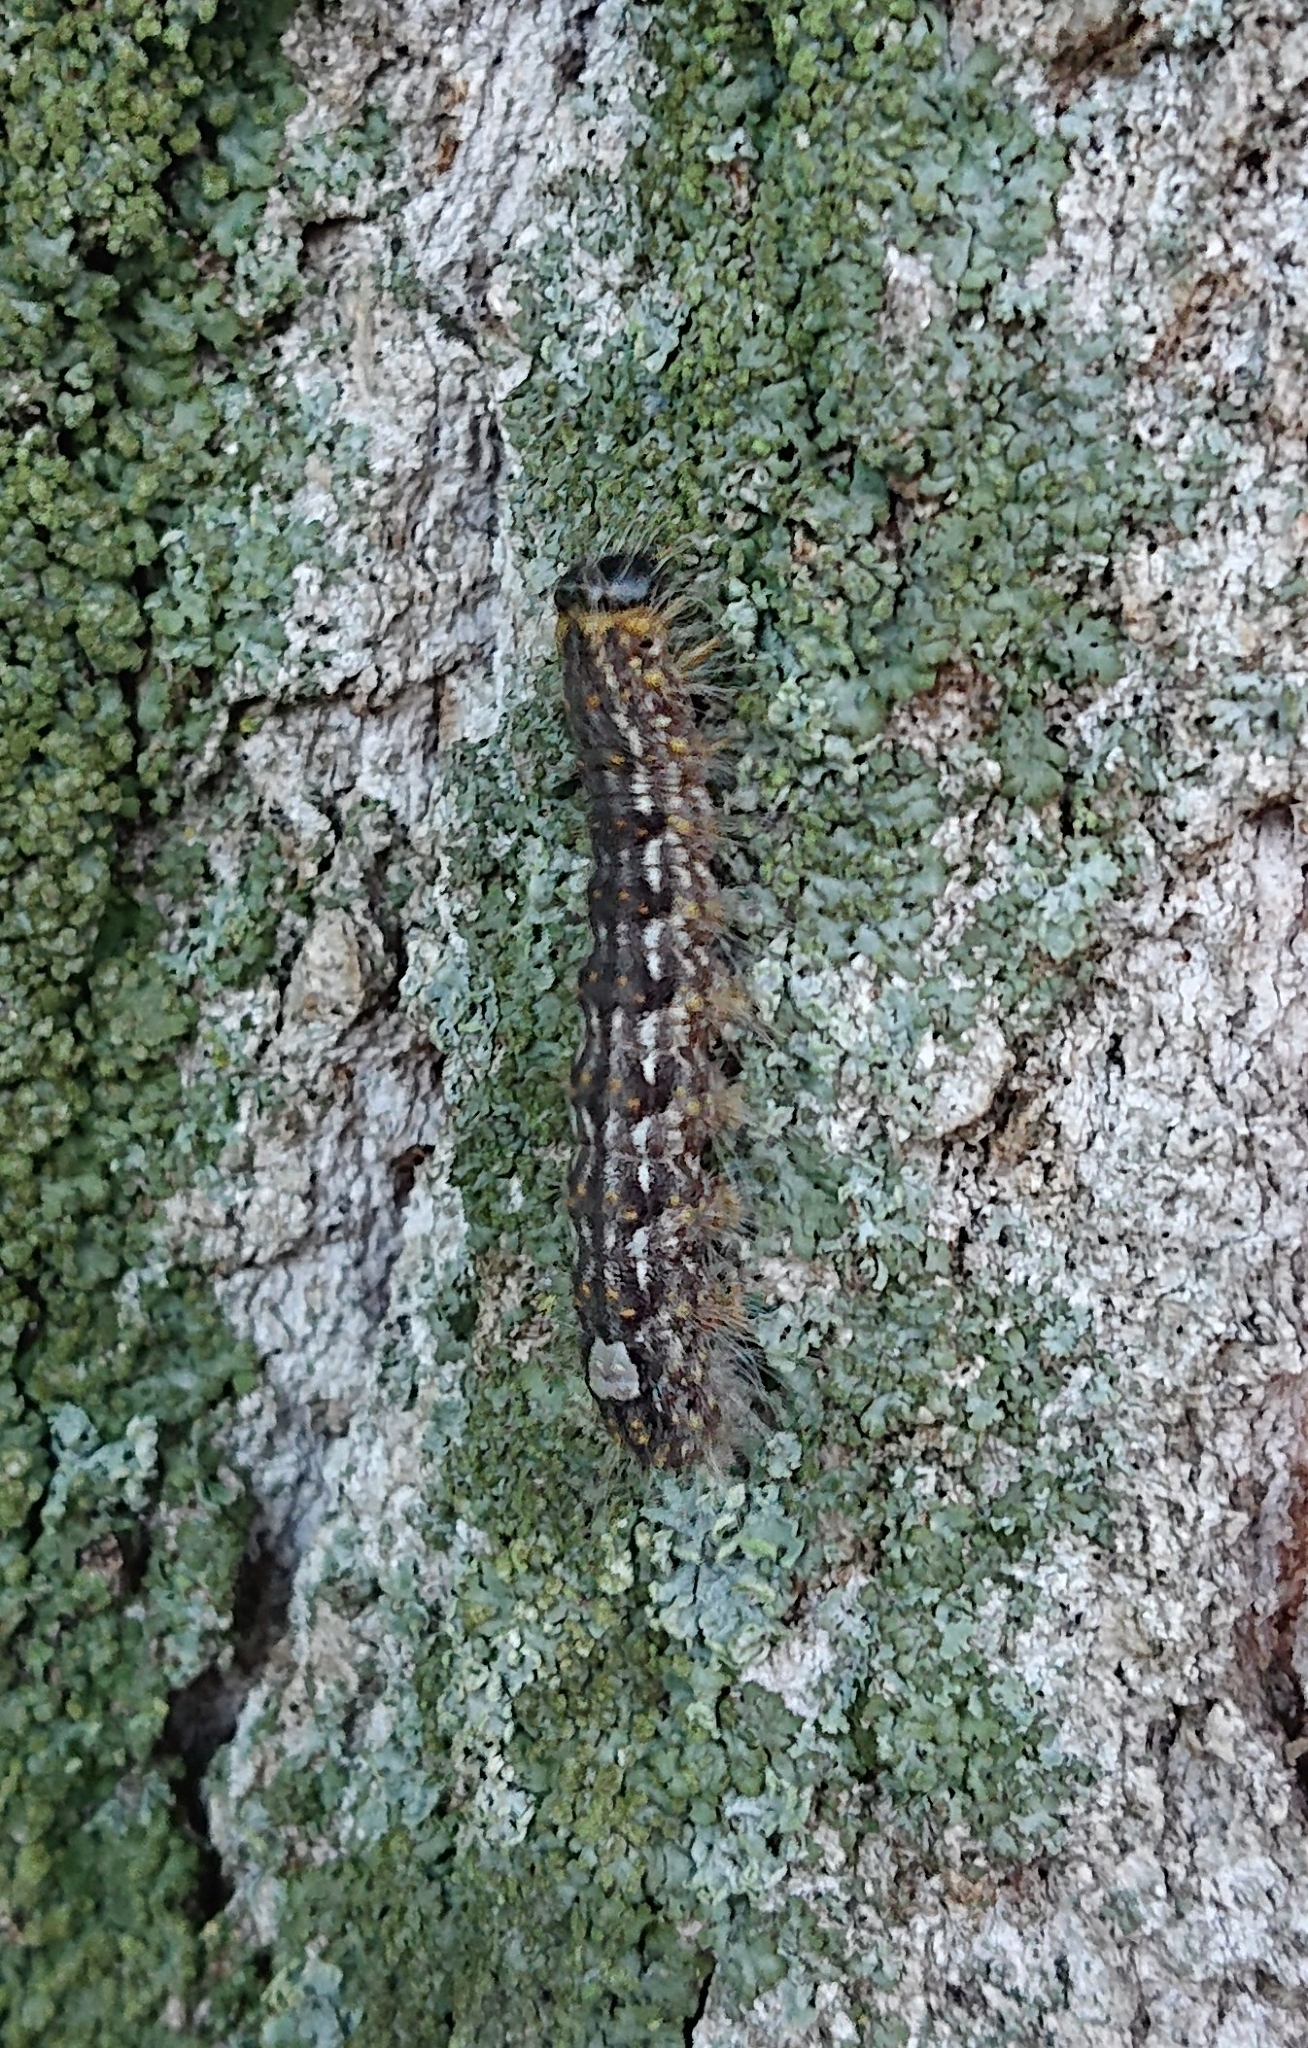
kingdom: Animalia
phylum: Arthropoda
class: Insecta
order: Lepidoptera
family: Noctuidae
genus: Acronicta
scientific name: Acronicta megacephala
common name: Poplar grey
